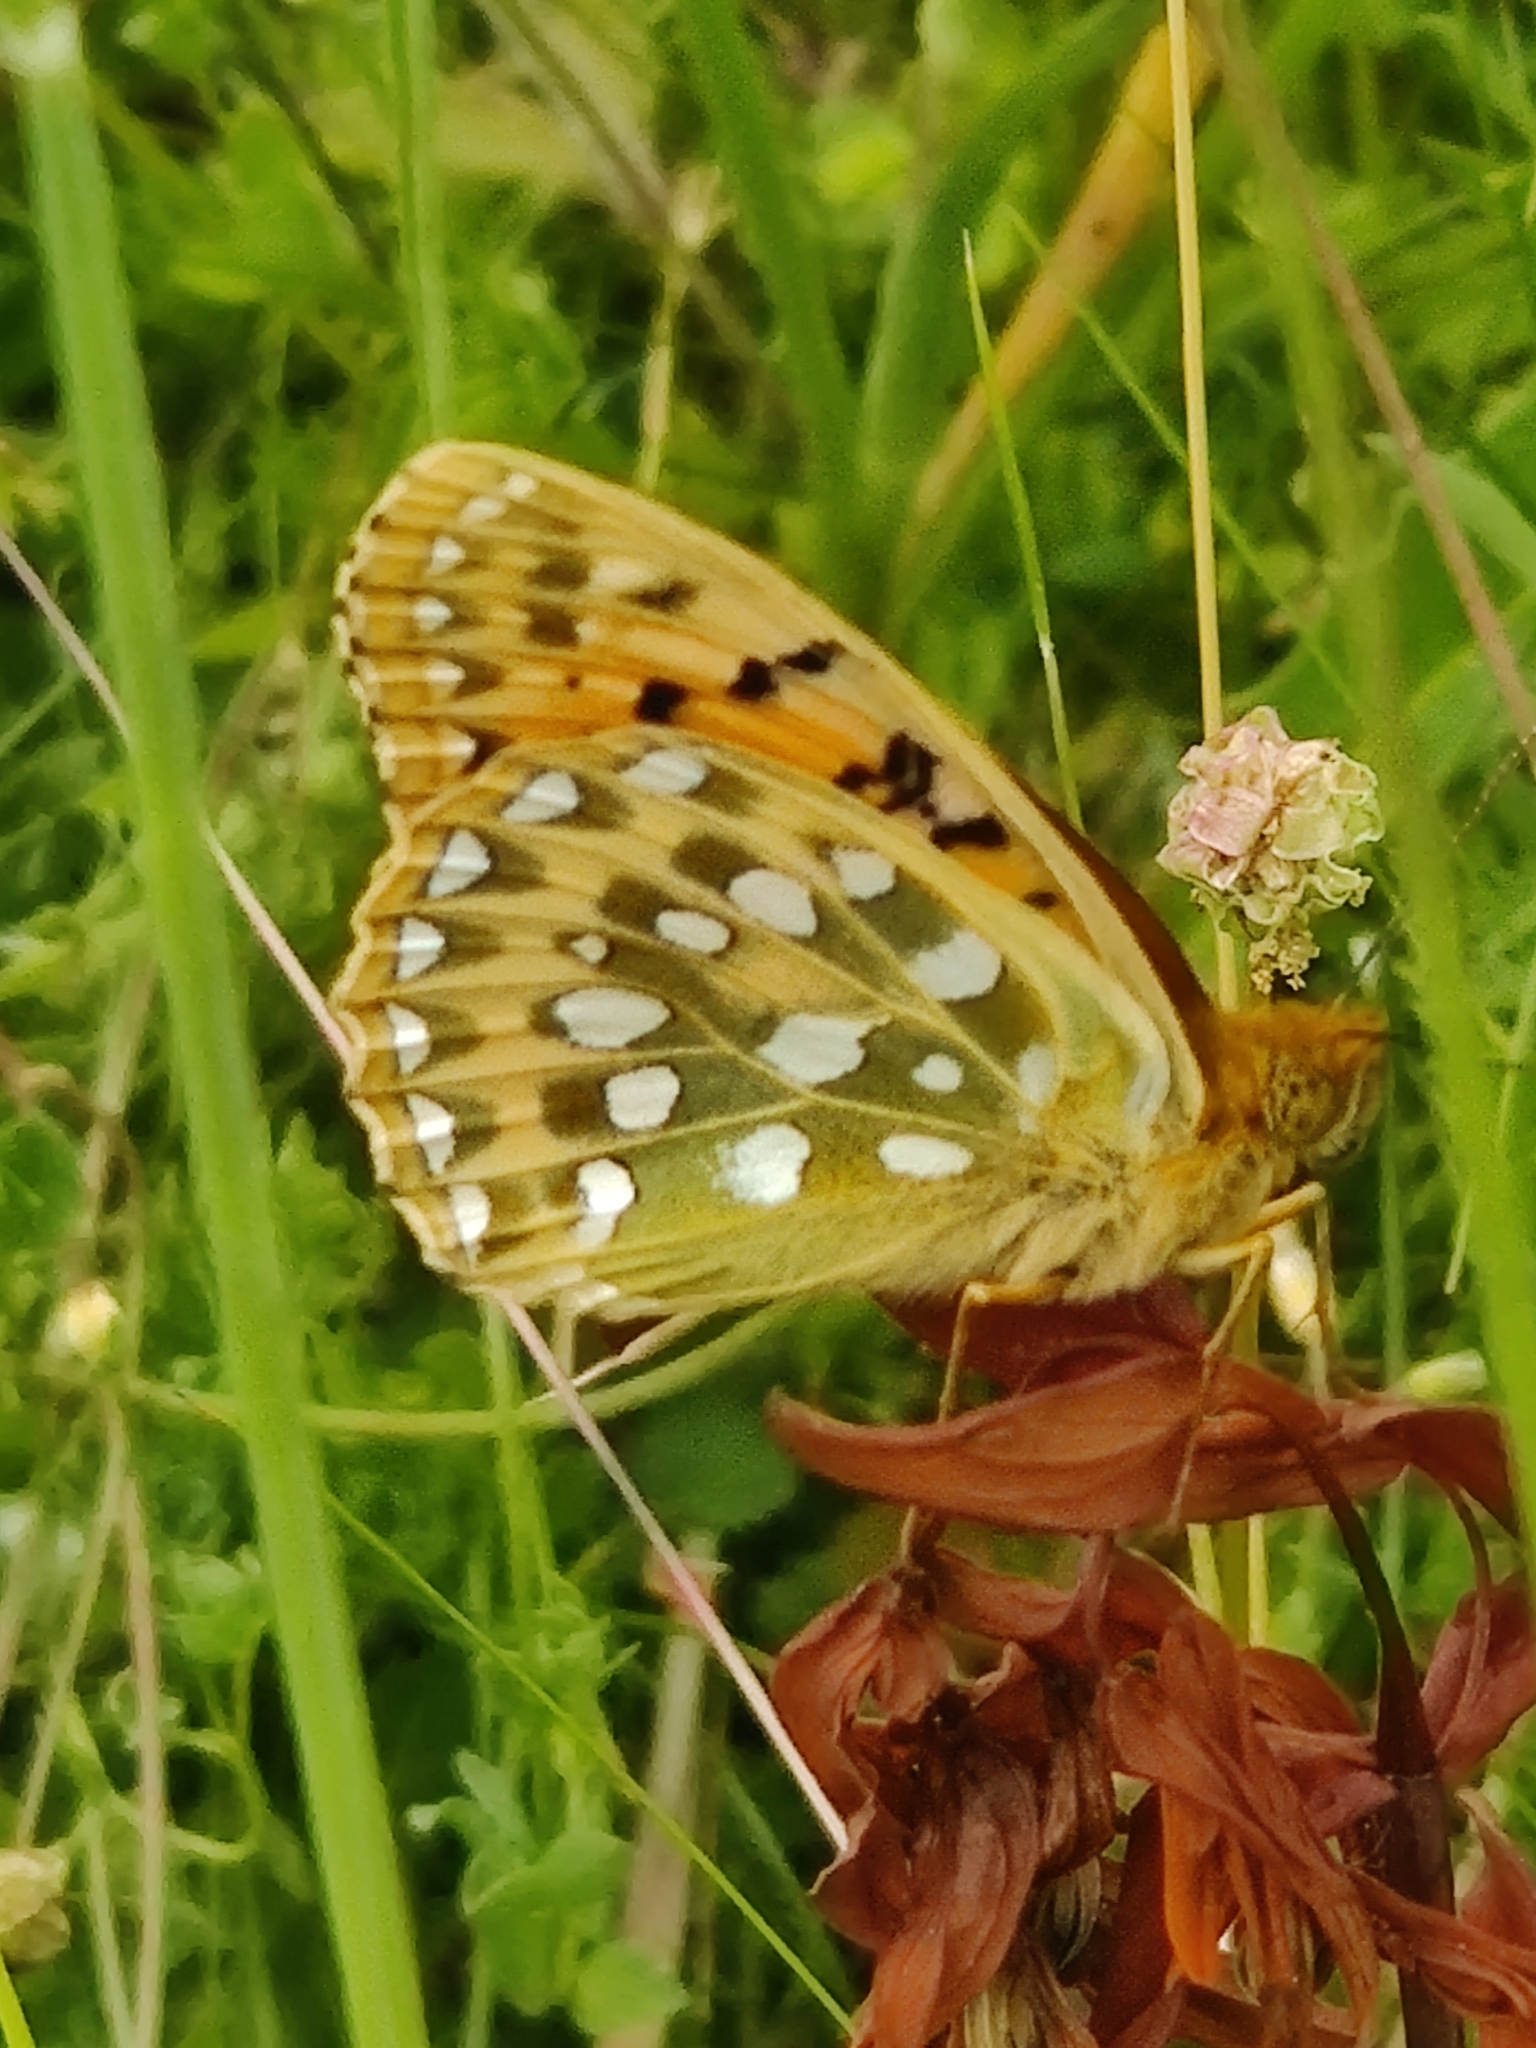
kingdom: Animalia
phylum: Arthropoda
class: Insecta
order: Lepidoptera
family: Nymphalidae
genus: Speyeria
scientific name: Speyeria aglaja
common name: Dark green fritillary
